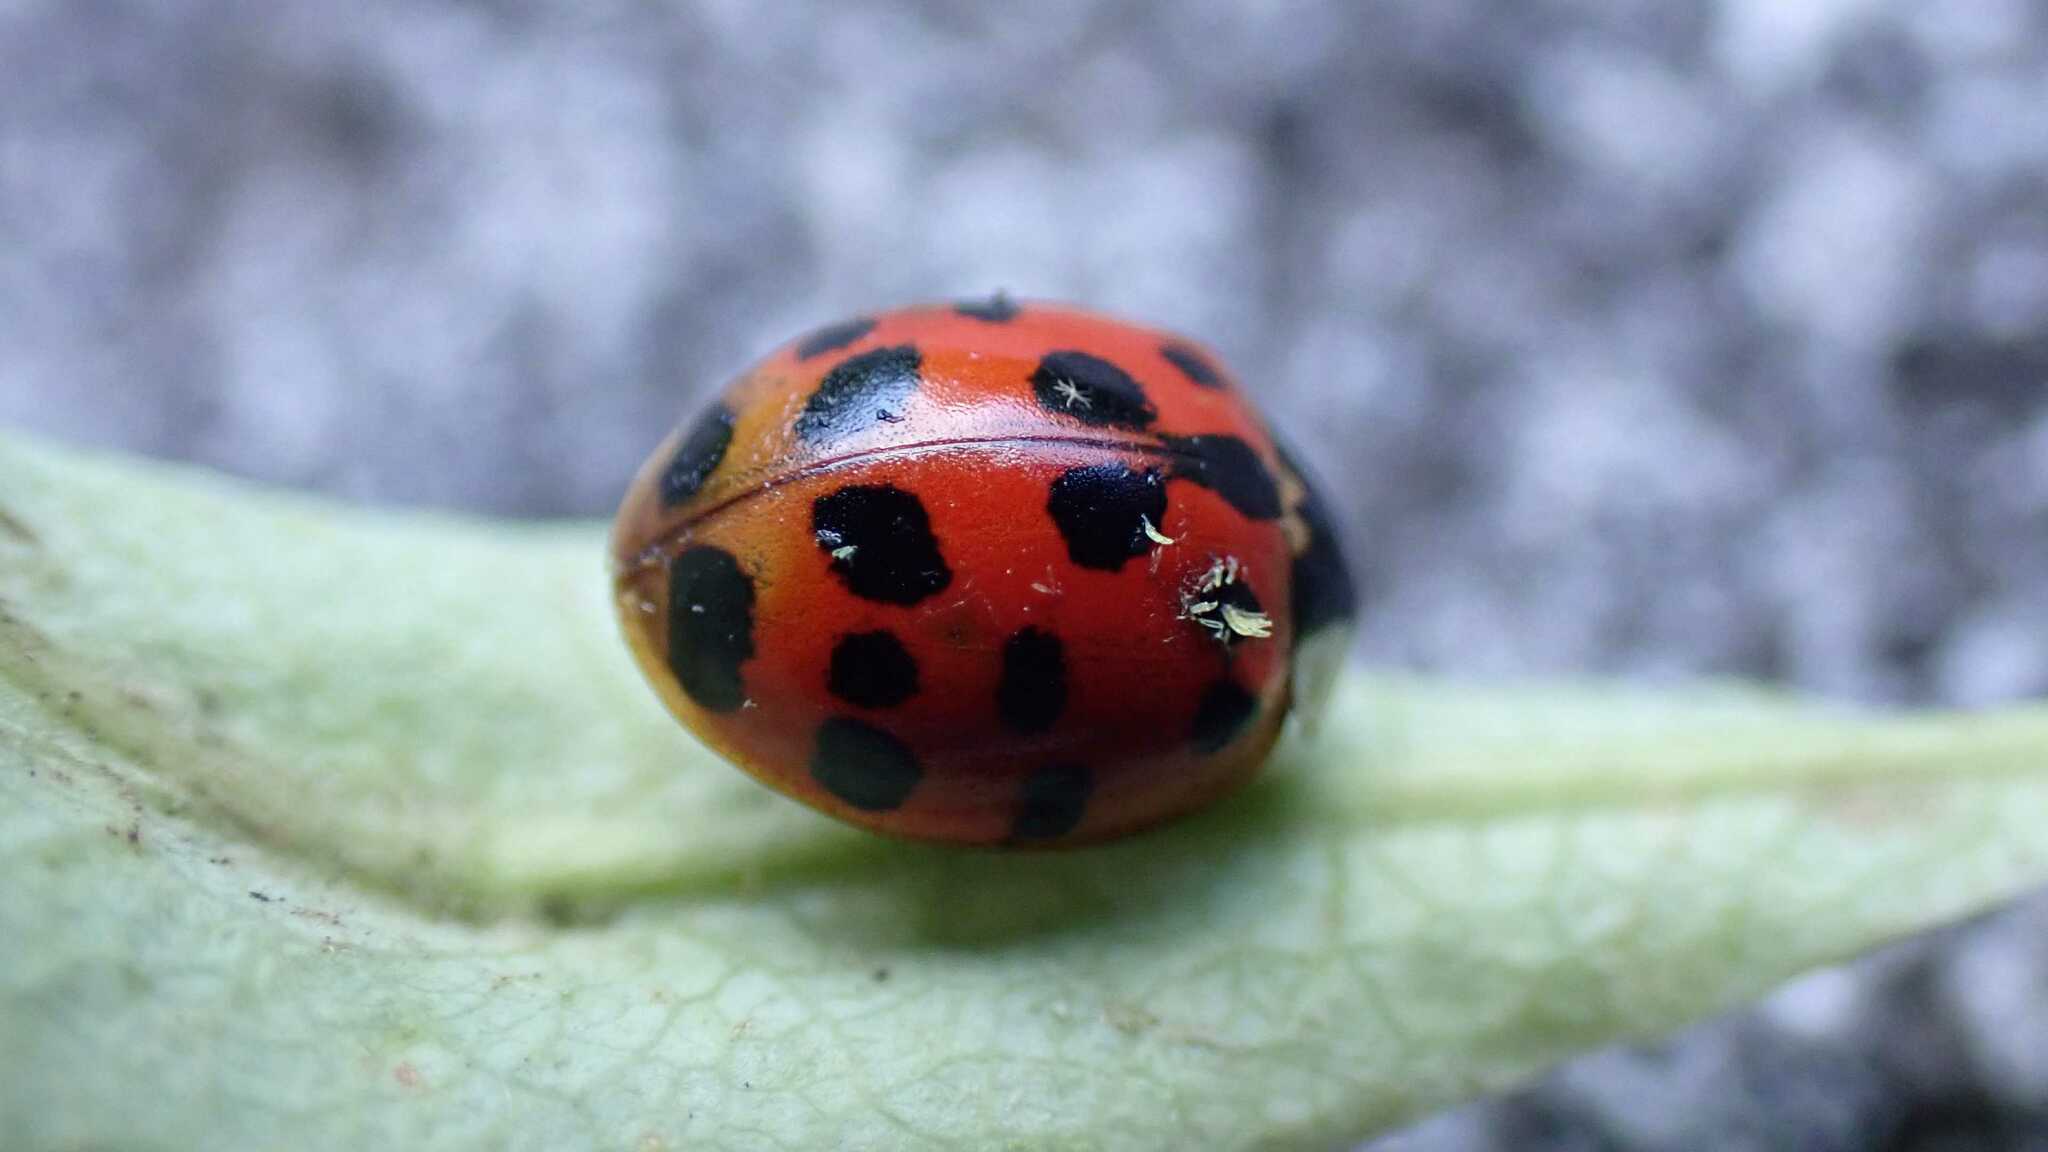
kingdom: Animalia
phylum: Arthropoda
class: Insecta
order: Hymenoptera
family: Braconidae
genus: Dinocampus
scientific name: Dinocampus coccinellae
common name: Braconid wasp
